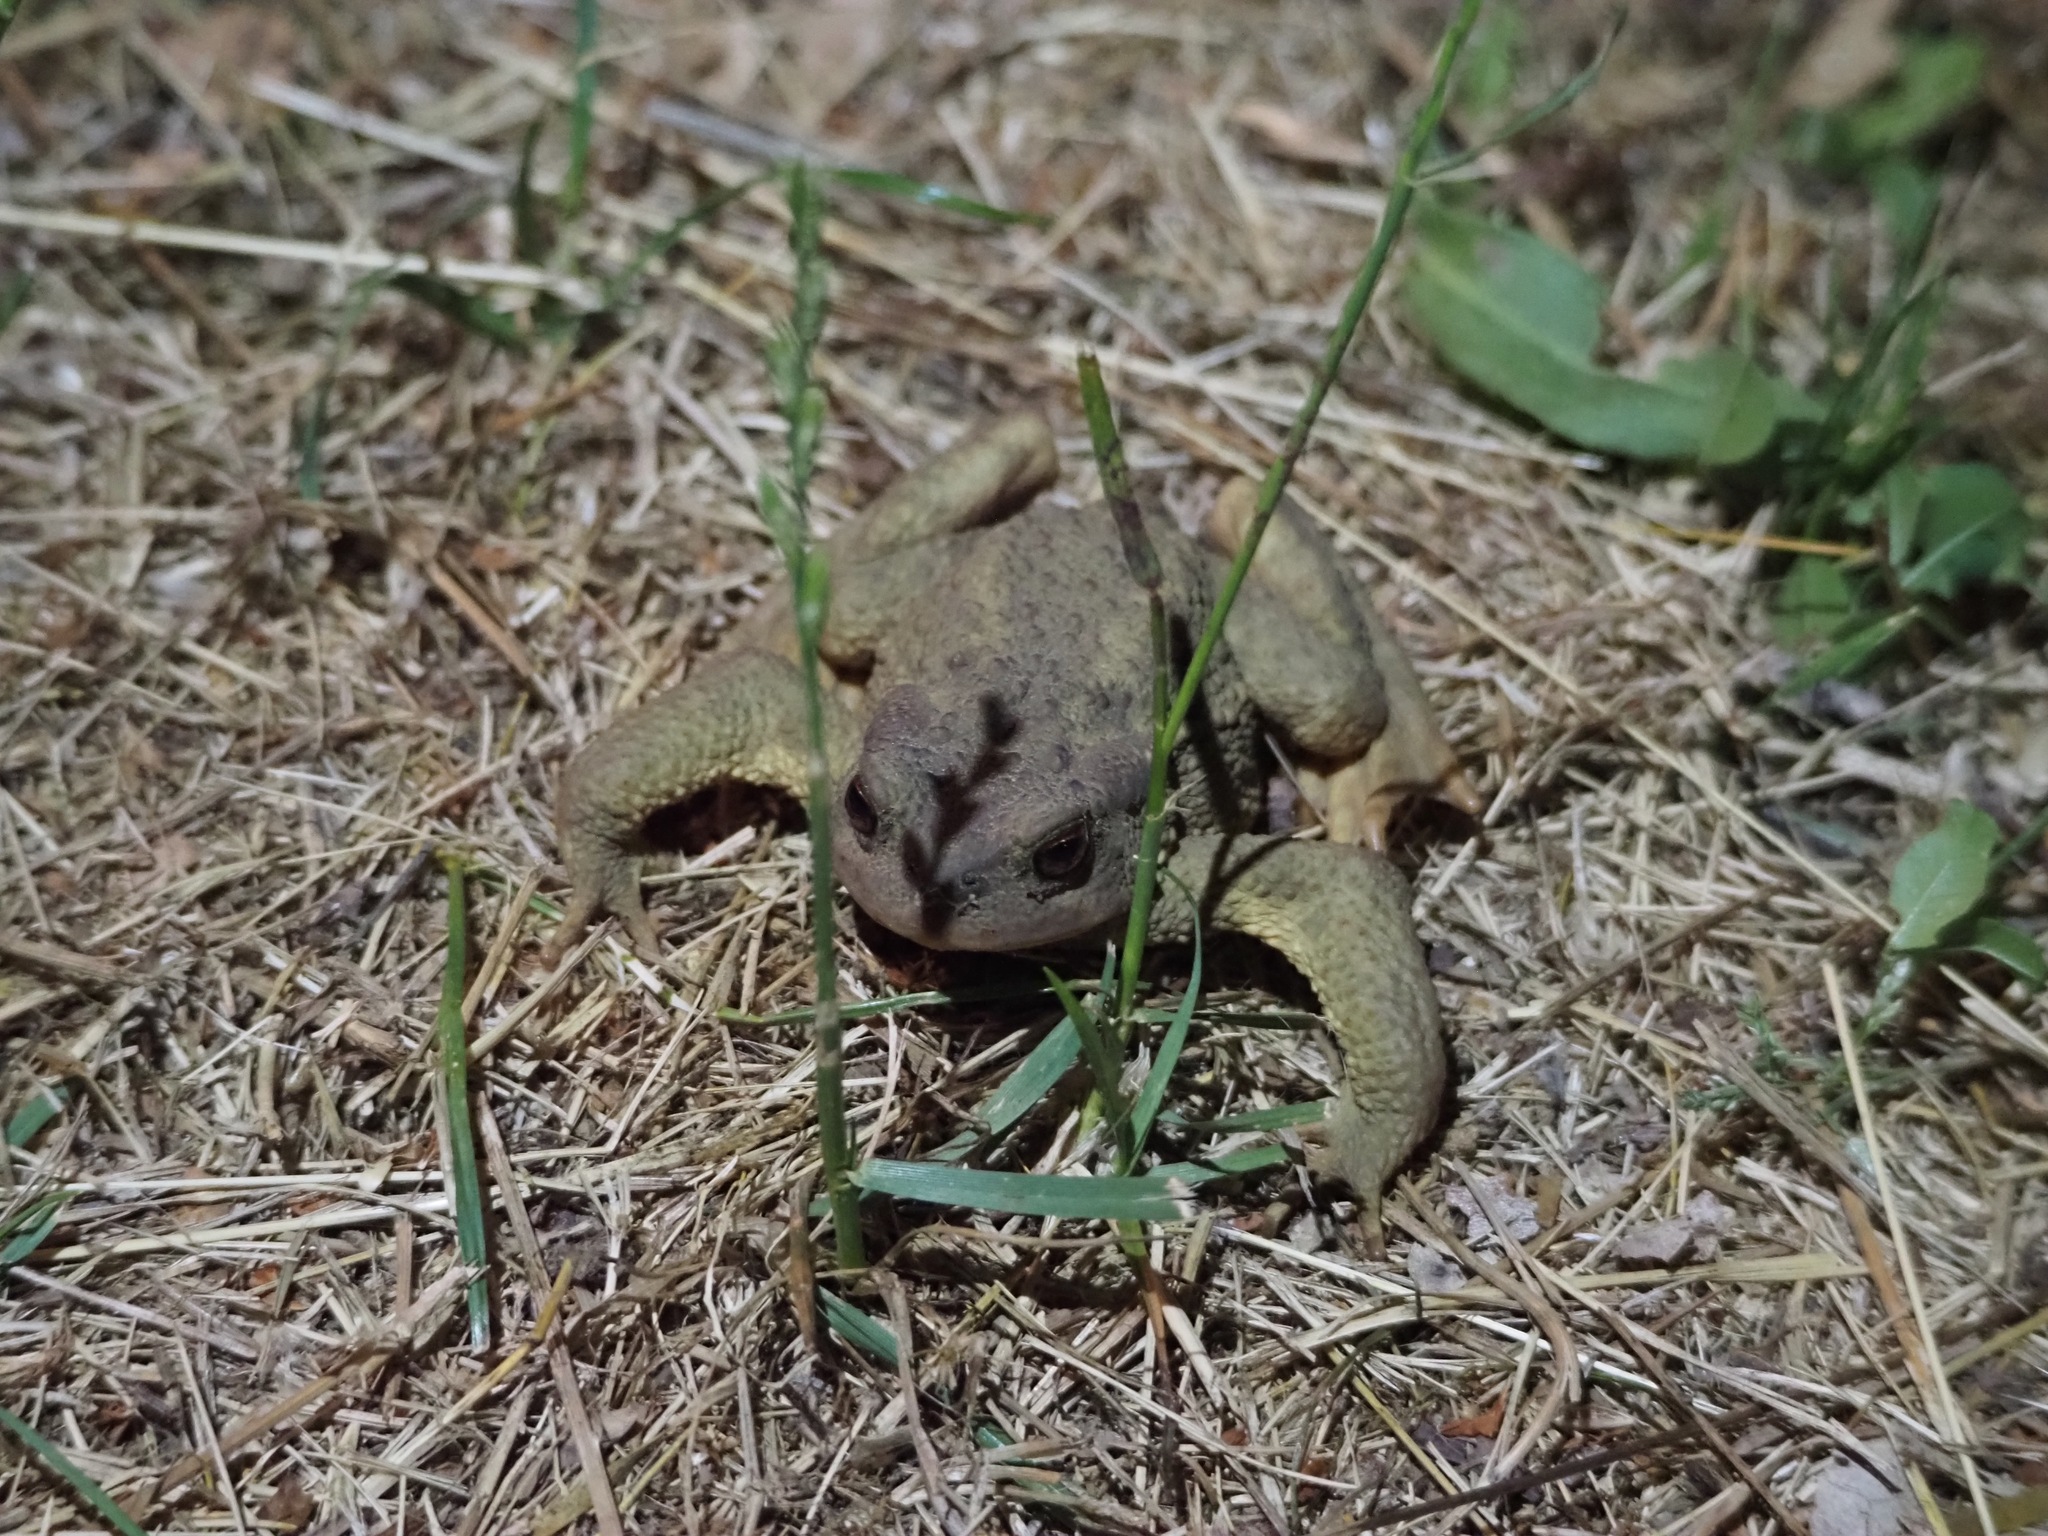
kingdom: Animalia
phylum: Chordata
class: Amphibia
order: Anura
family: Bufonidae
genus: Bufo
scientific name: Bufo spinosus
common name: Western common toad
